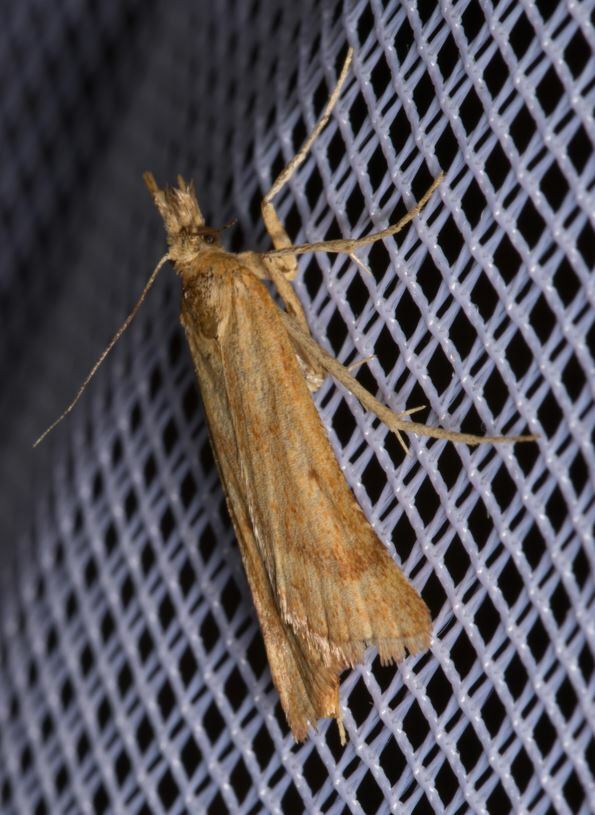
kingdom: Animalia
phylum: Arthropoda
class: Insecta
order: Lepidoptera
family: Pyralidae
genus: Synaphe
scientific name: Synaphe punctalis
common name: Long-legged tabby
